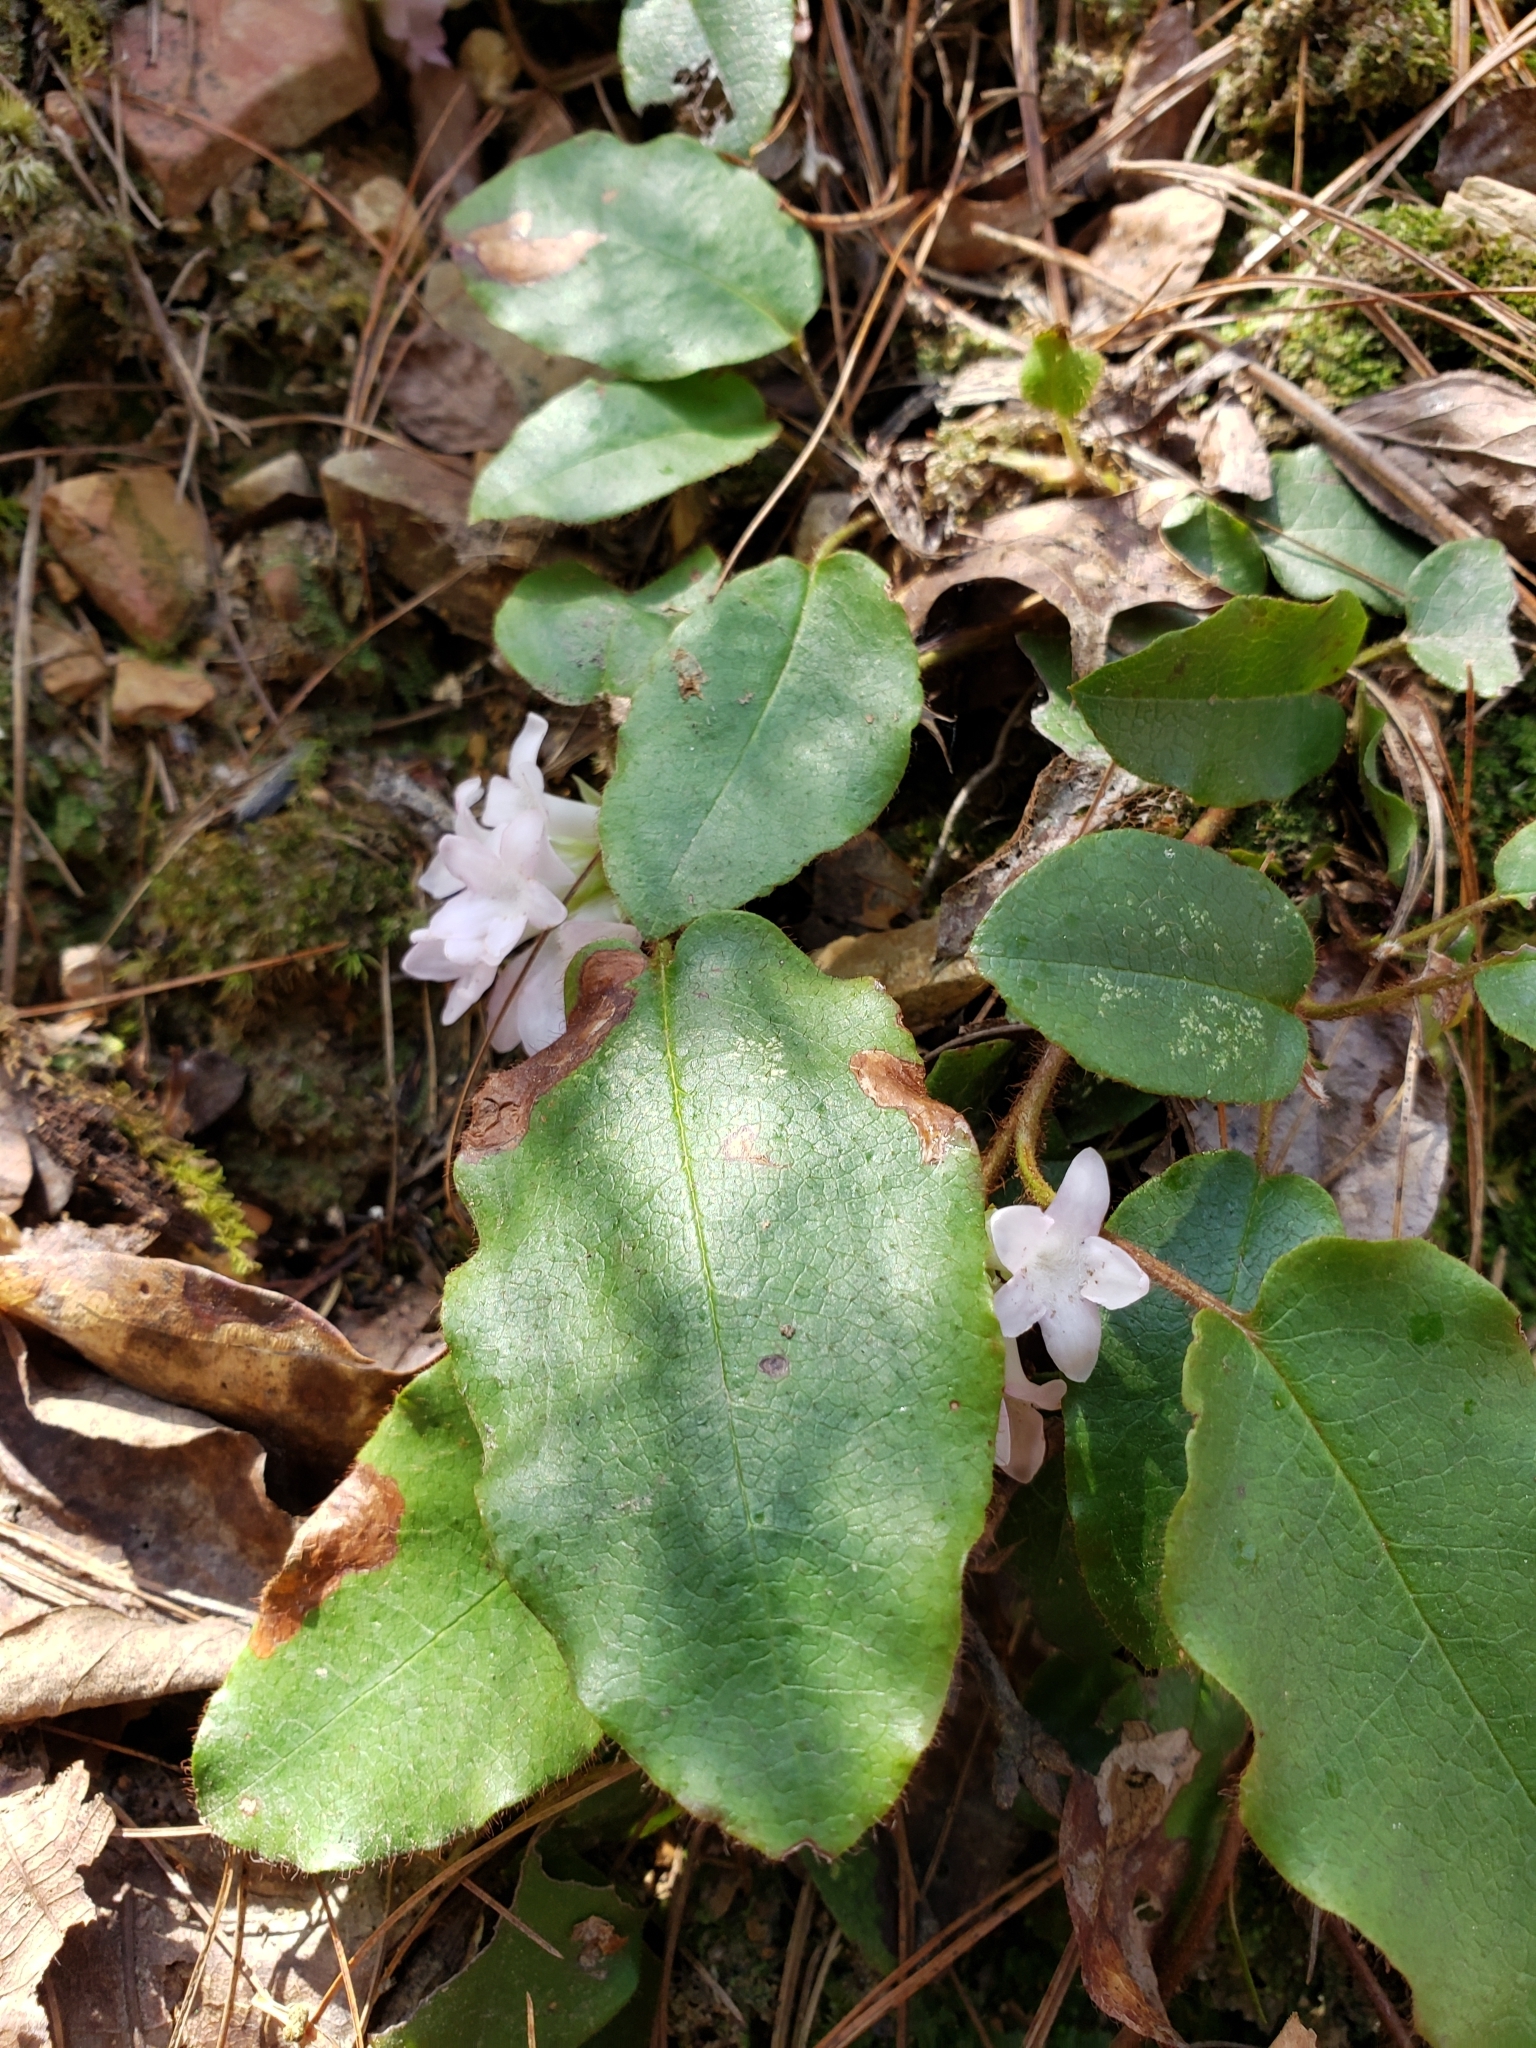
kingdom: Plantae
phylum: Tracheophyta
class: Magnoliopsida
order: Ericales
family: Ericaceae
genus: Epigaea
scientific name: Epigaea repens
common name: Gravelroot
